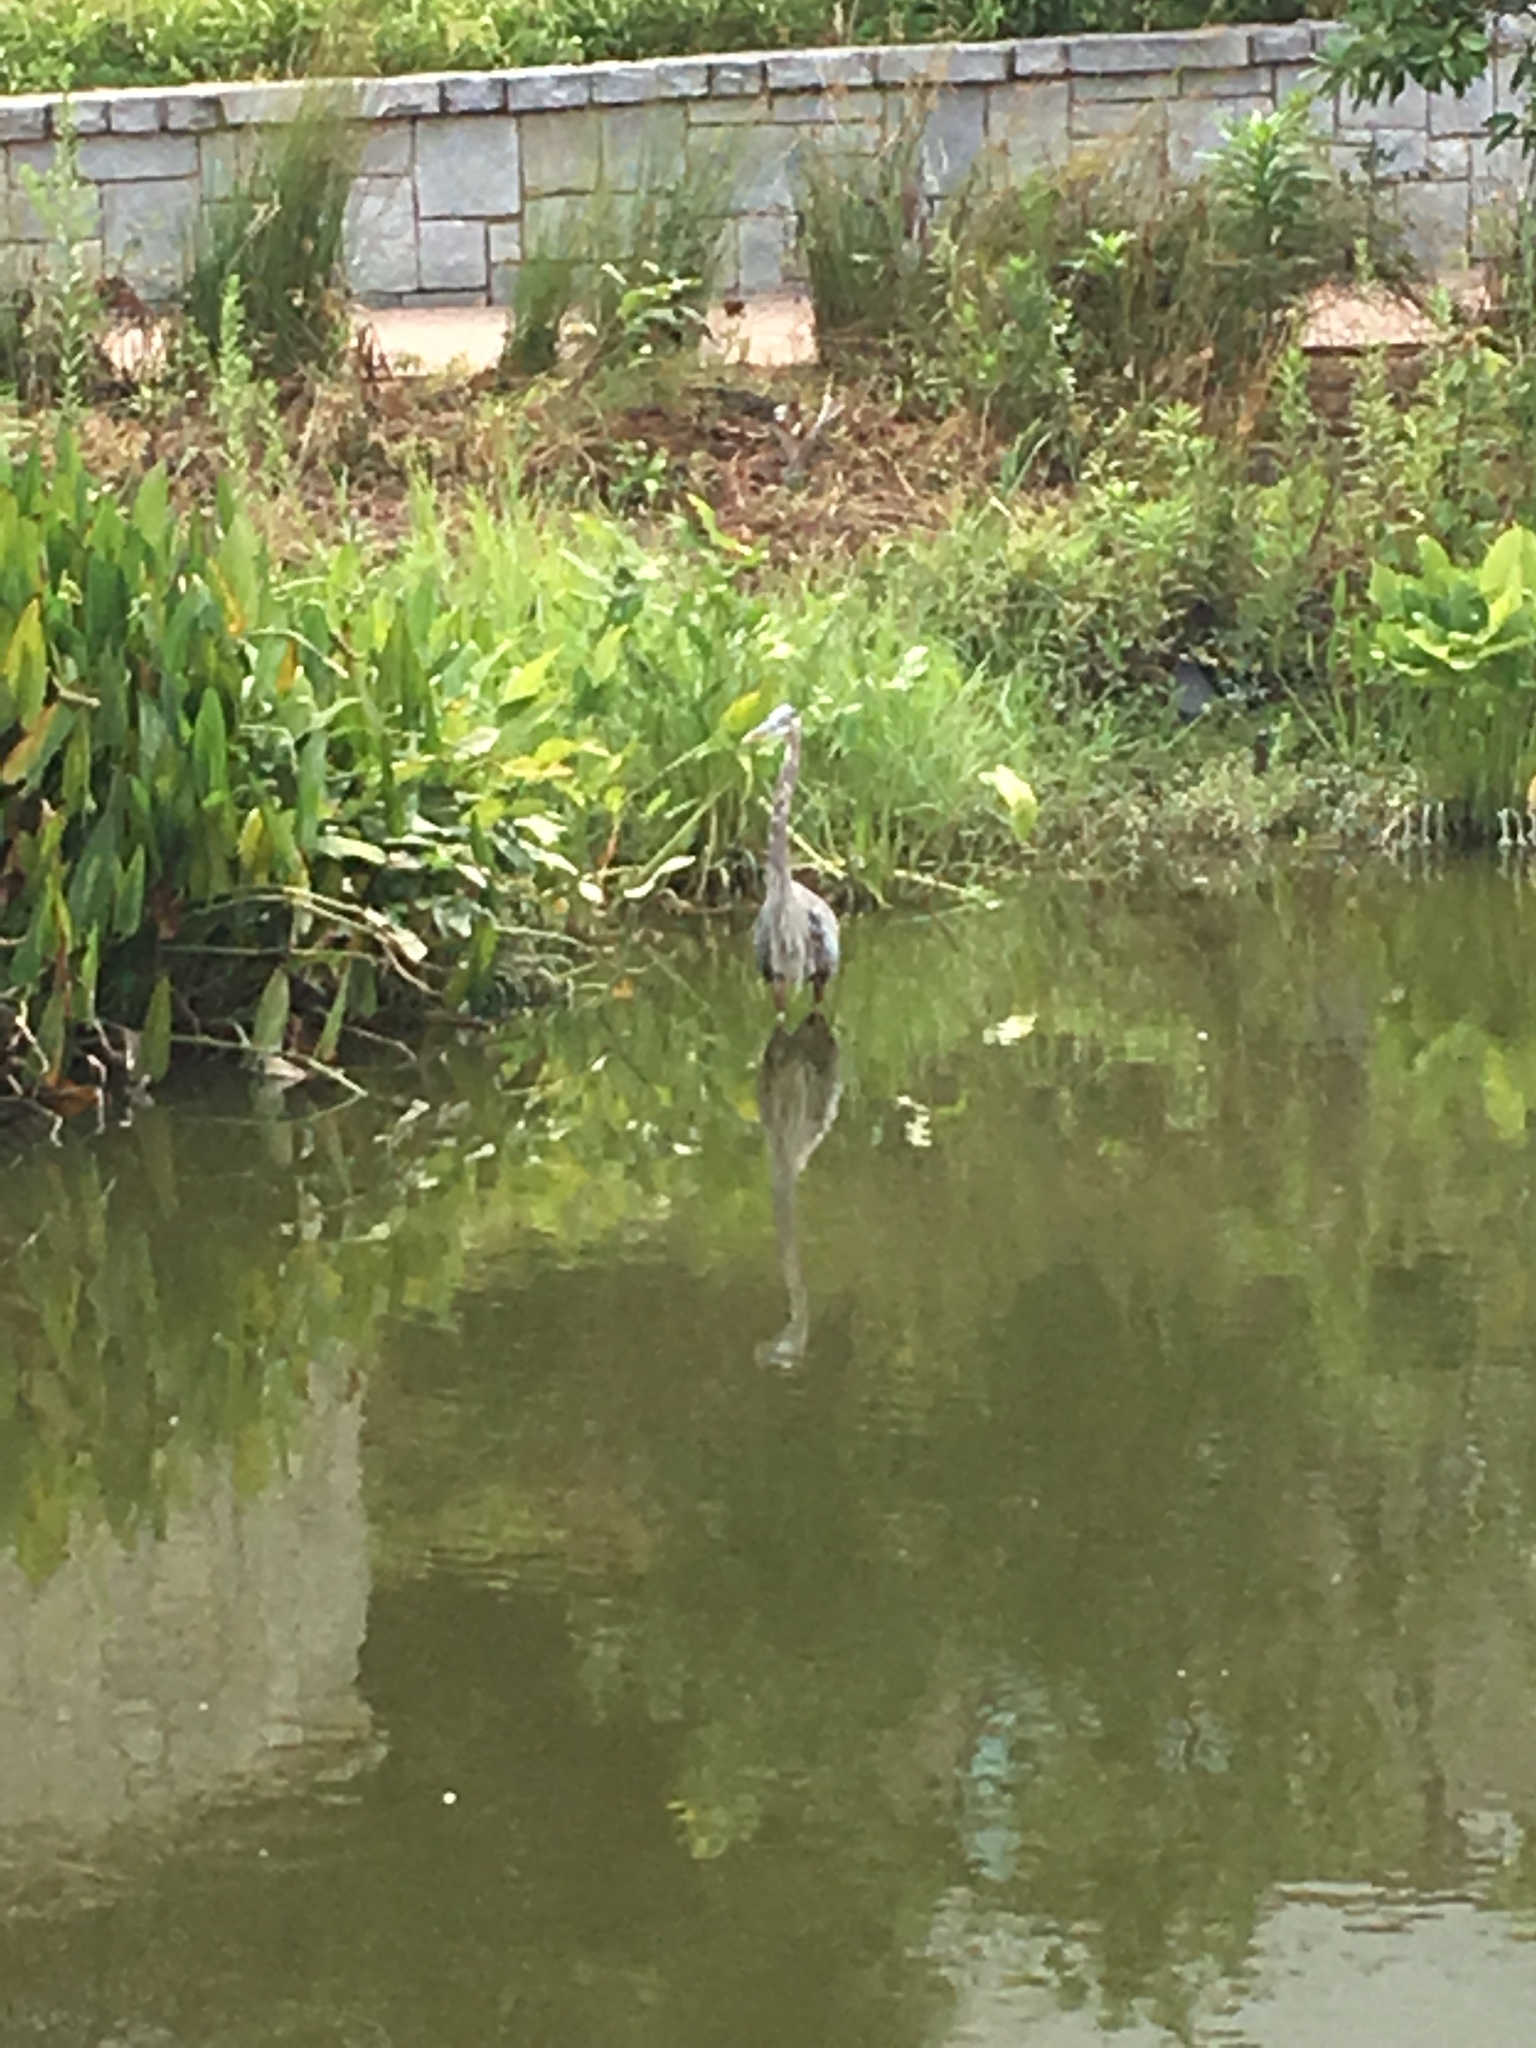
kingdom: Animalia
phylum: Chordata
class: Aves
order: Pelecaniformes
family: Ardeidae
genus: Ardea
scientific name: Ardea herodias
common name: Great blue heron
